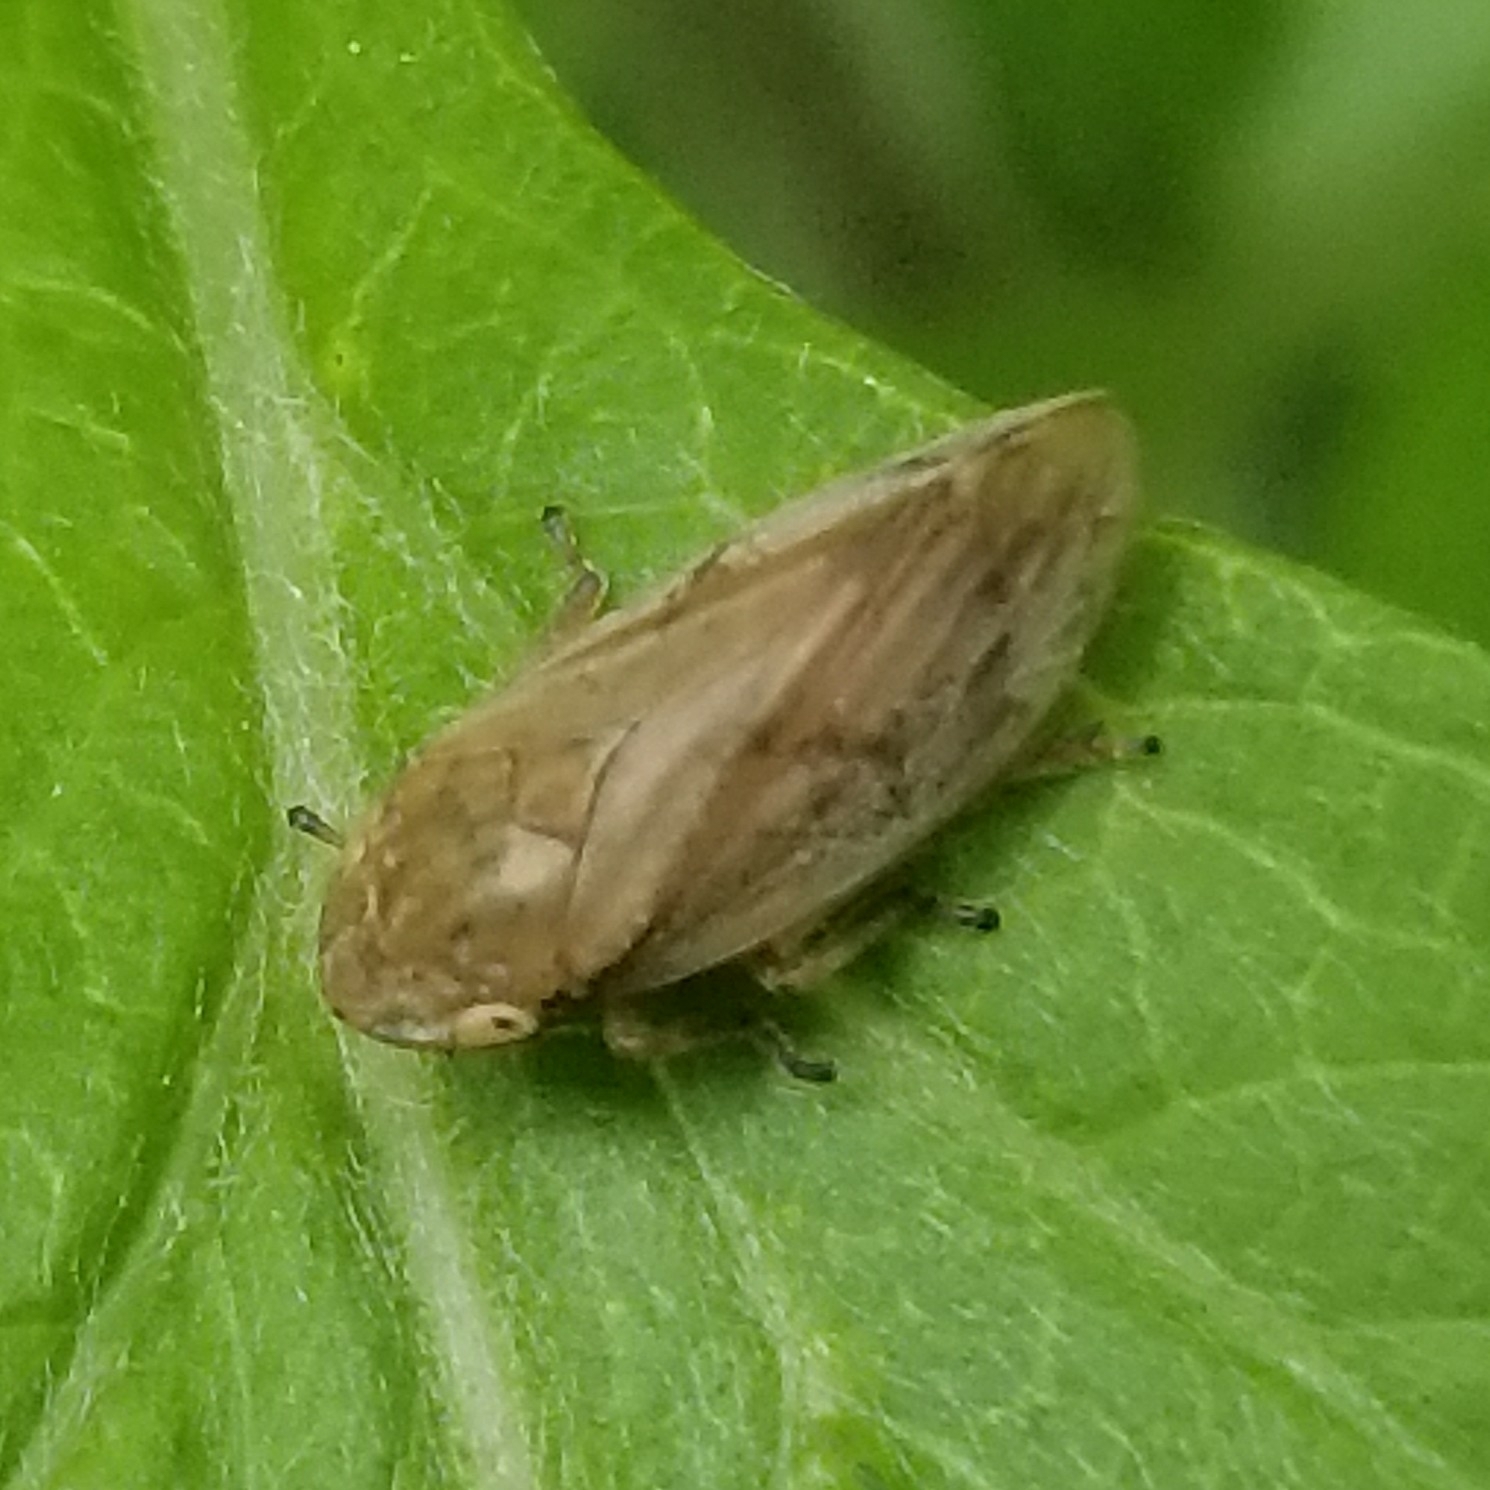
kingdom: Animalia
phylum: Arthropoda
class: Insecta
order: Hemiptera
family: Aphrophoridae
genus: Philaenus
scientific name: Philaenus spumarius
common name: Meadow spittlebug
